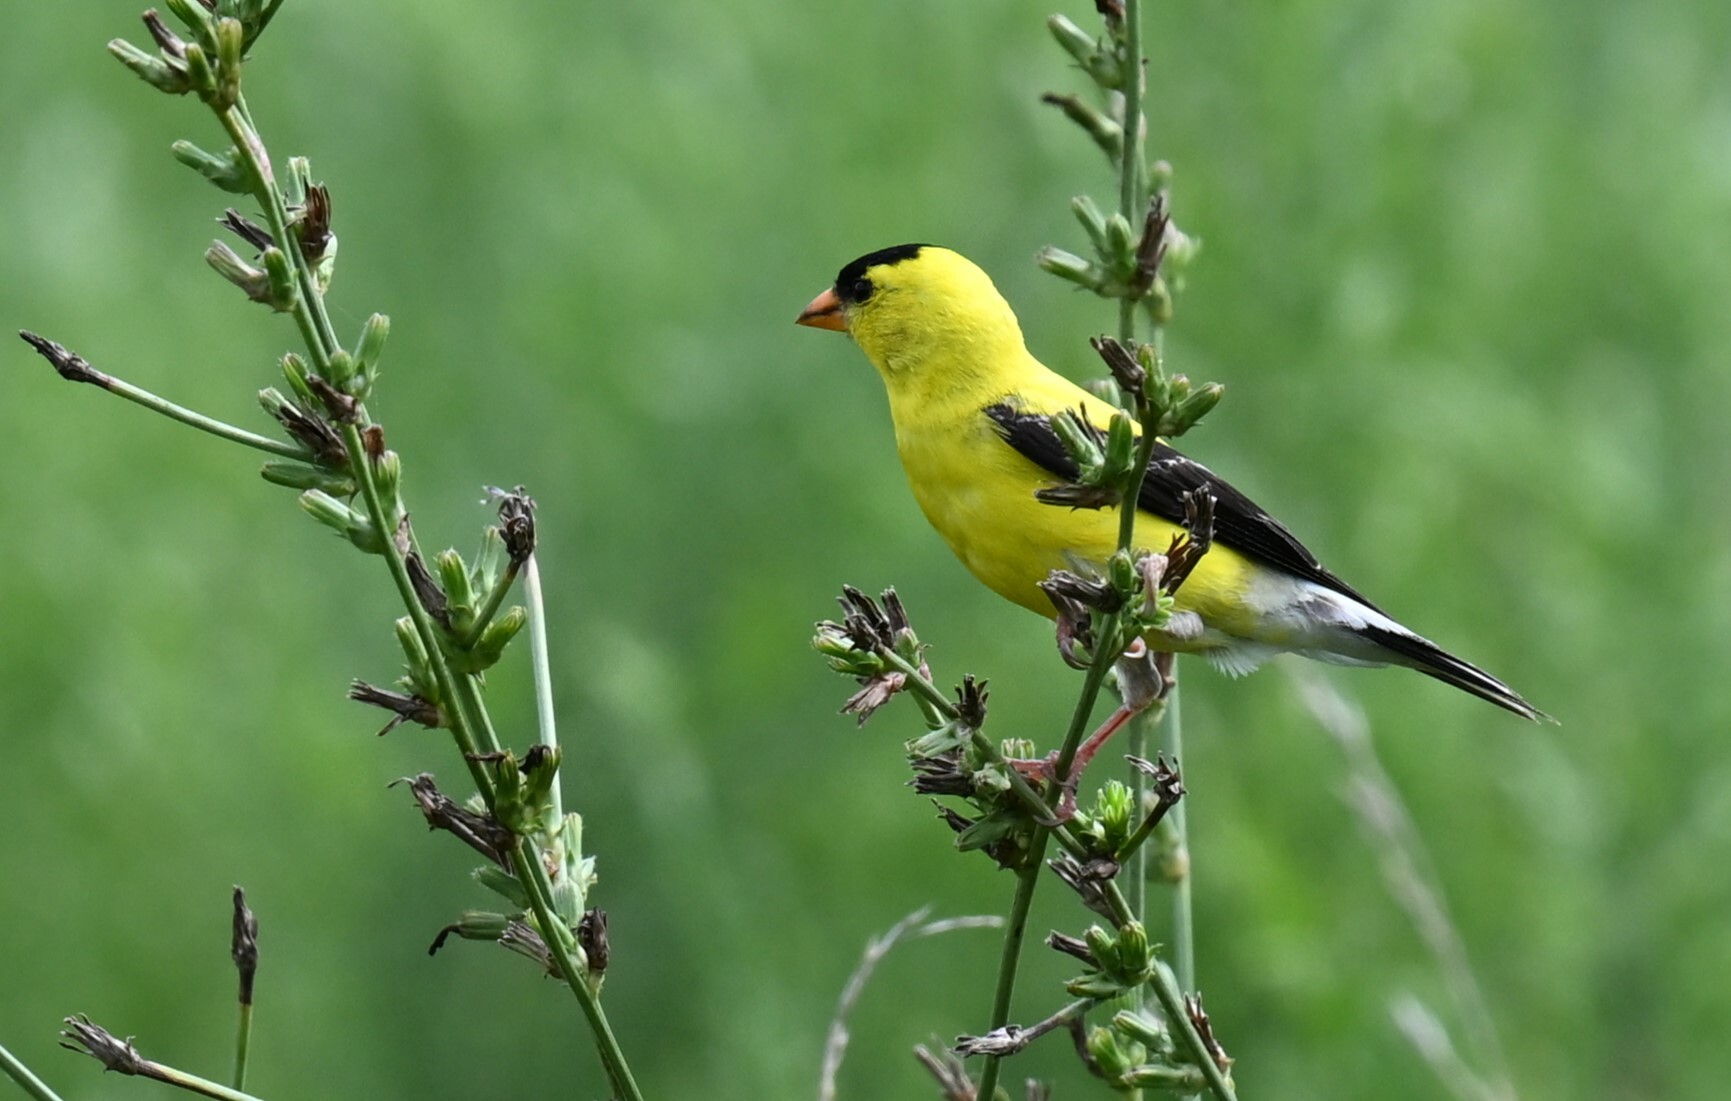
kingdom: Animalia
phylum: Chordata
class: Aves
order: Passeriformes
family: Fringillidae
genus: Spinus
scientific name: Spinus tristis
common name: American goldfinch
